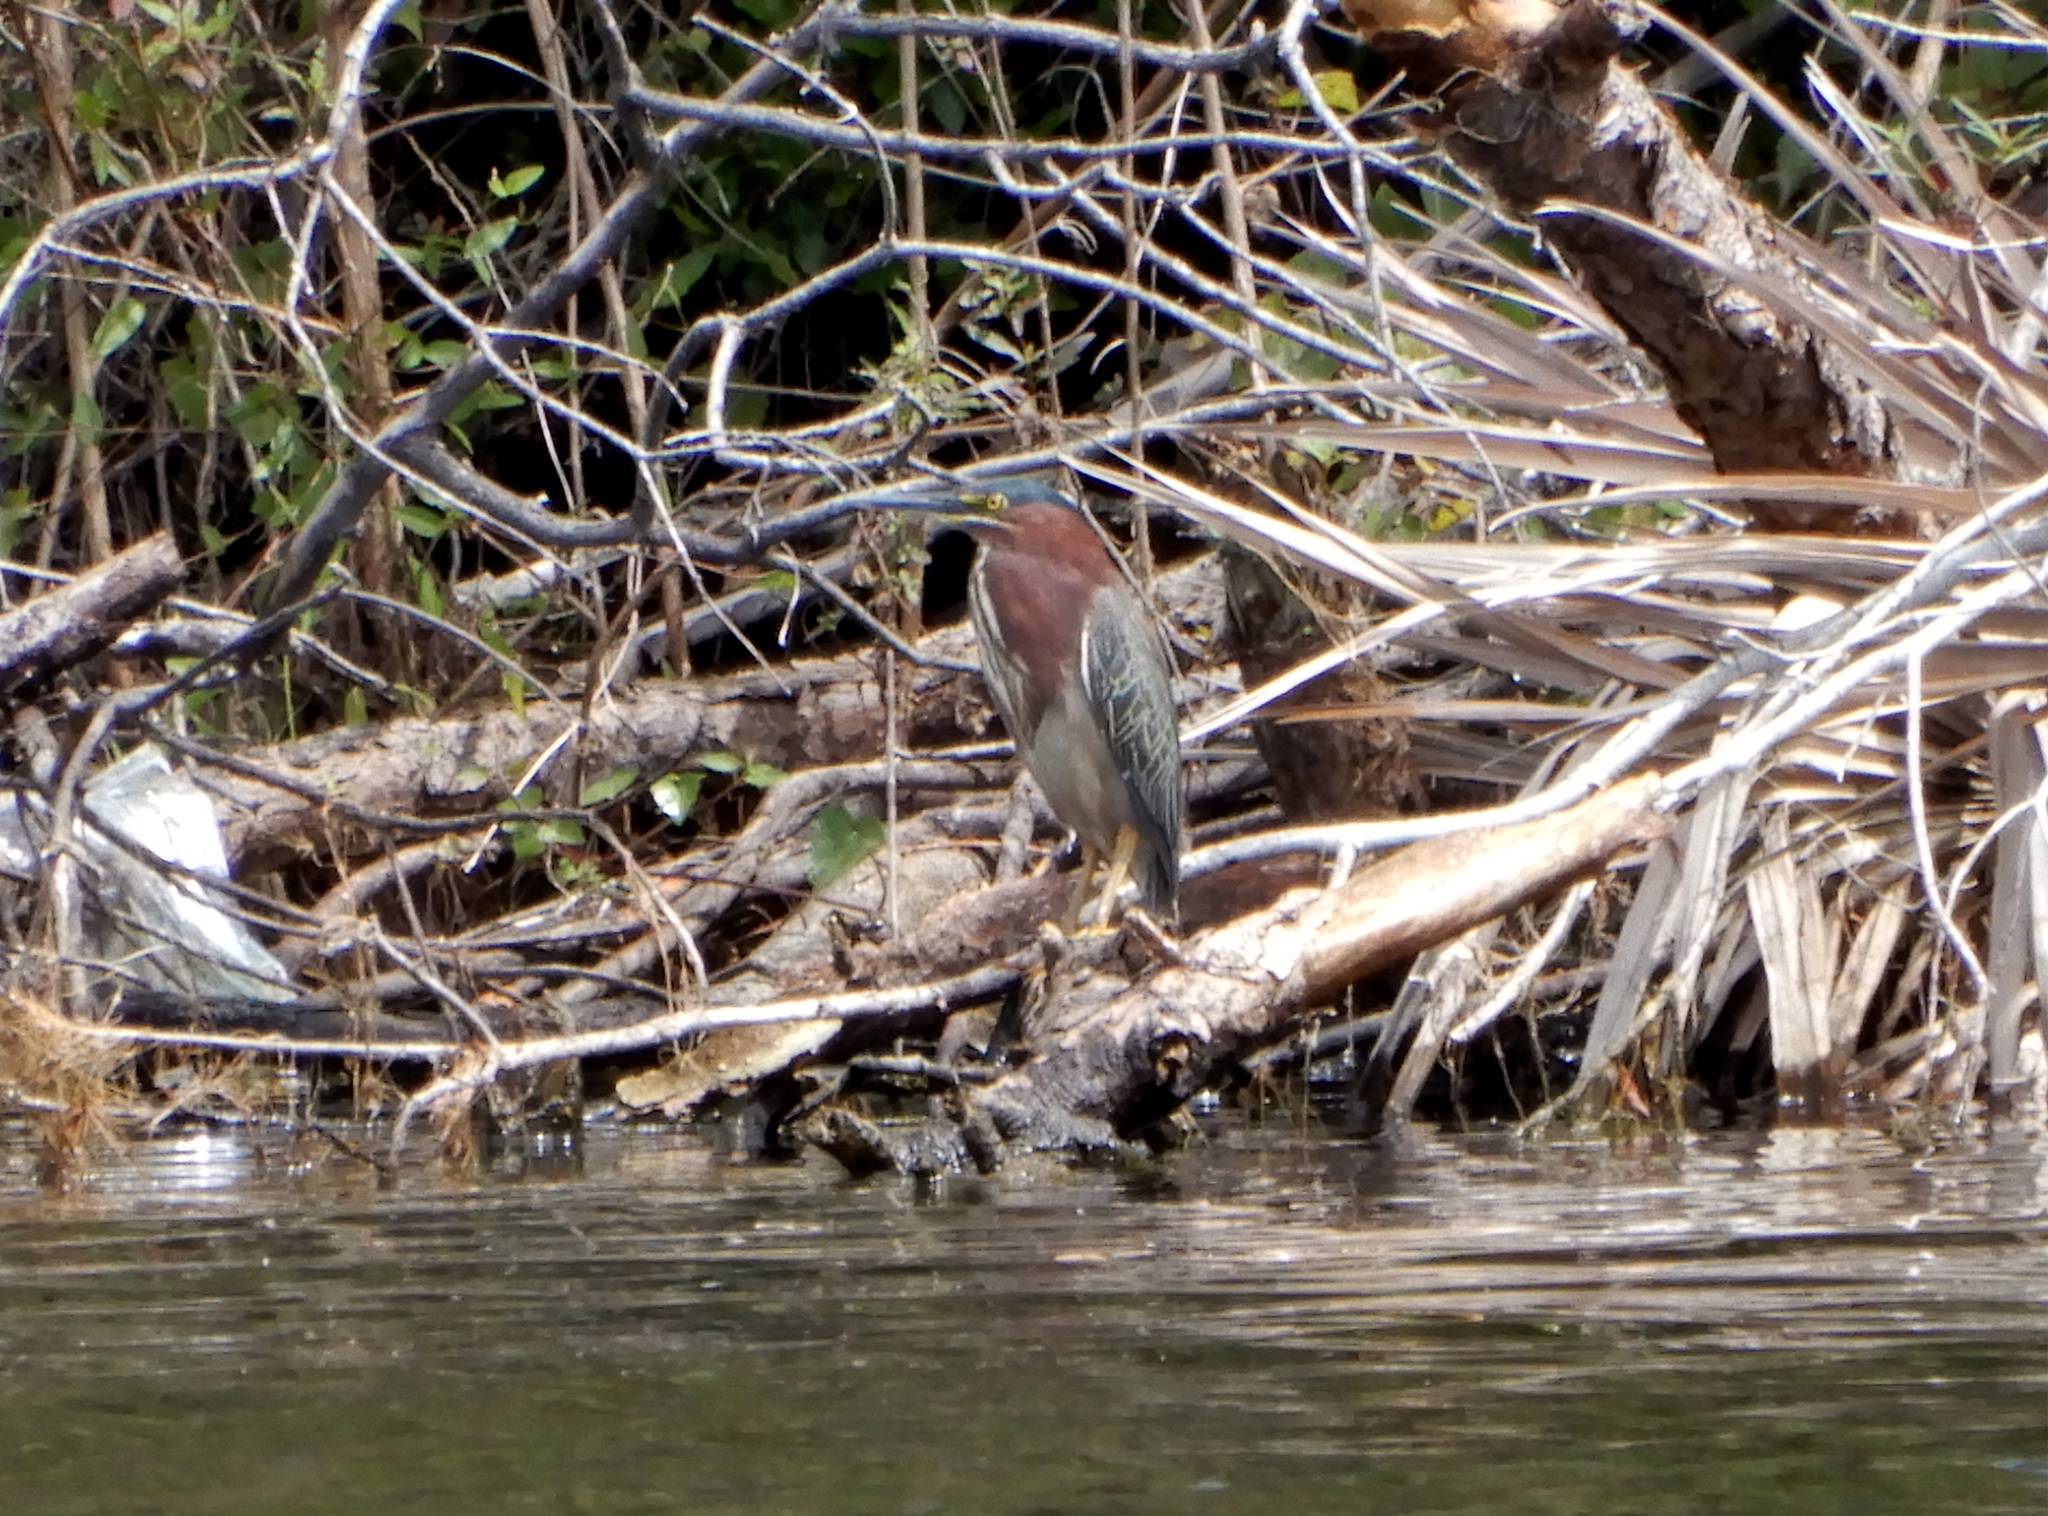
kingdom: Animalia
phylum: Chordata
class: Aves
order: Pelecaniformes
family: Ardeidae
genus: Butorides
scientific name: Butorides virescens
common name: Green heron
